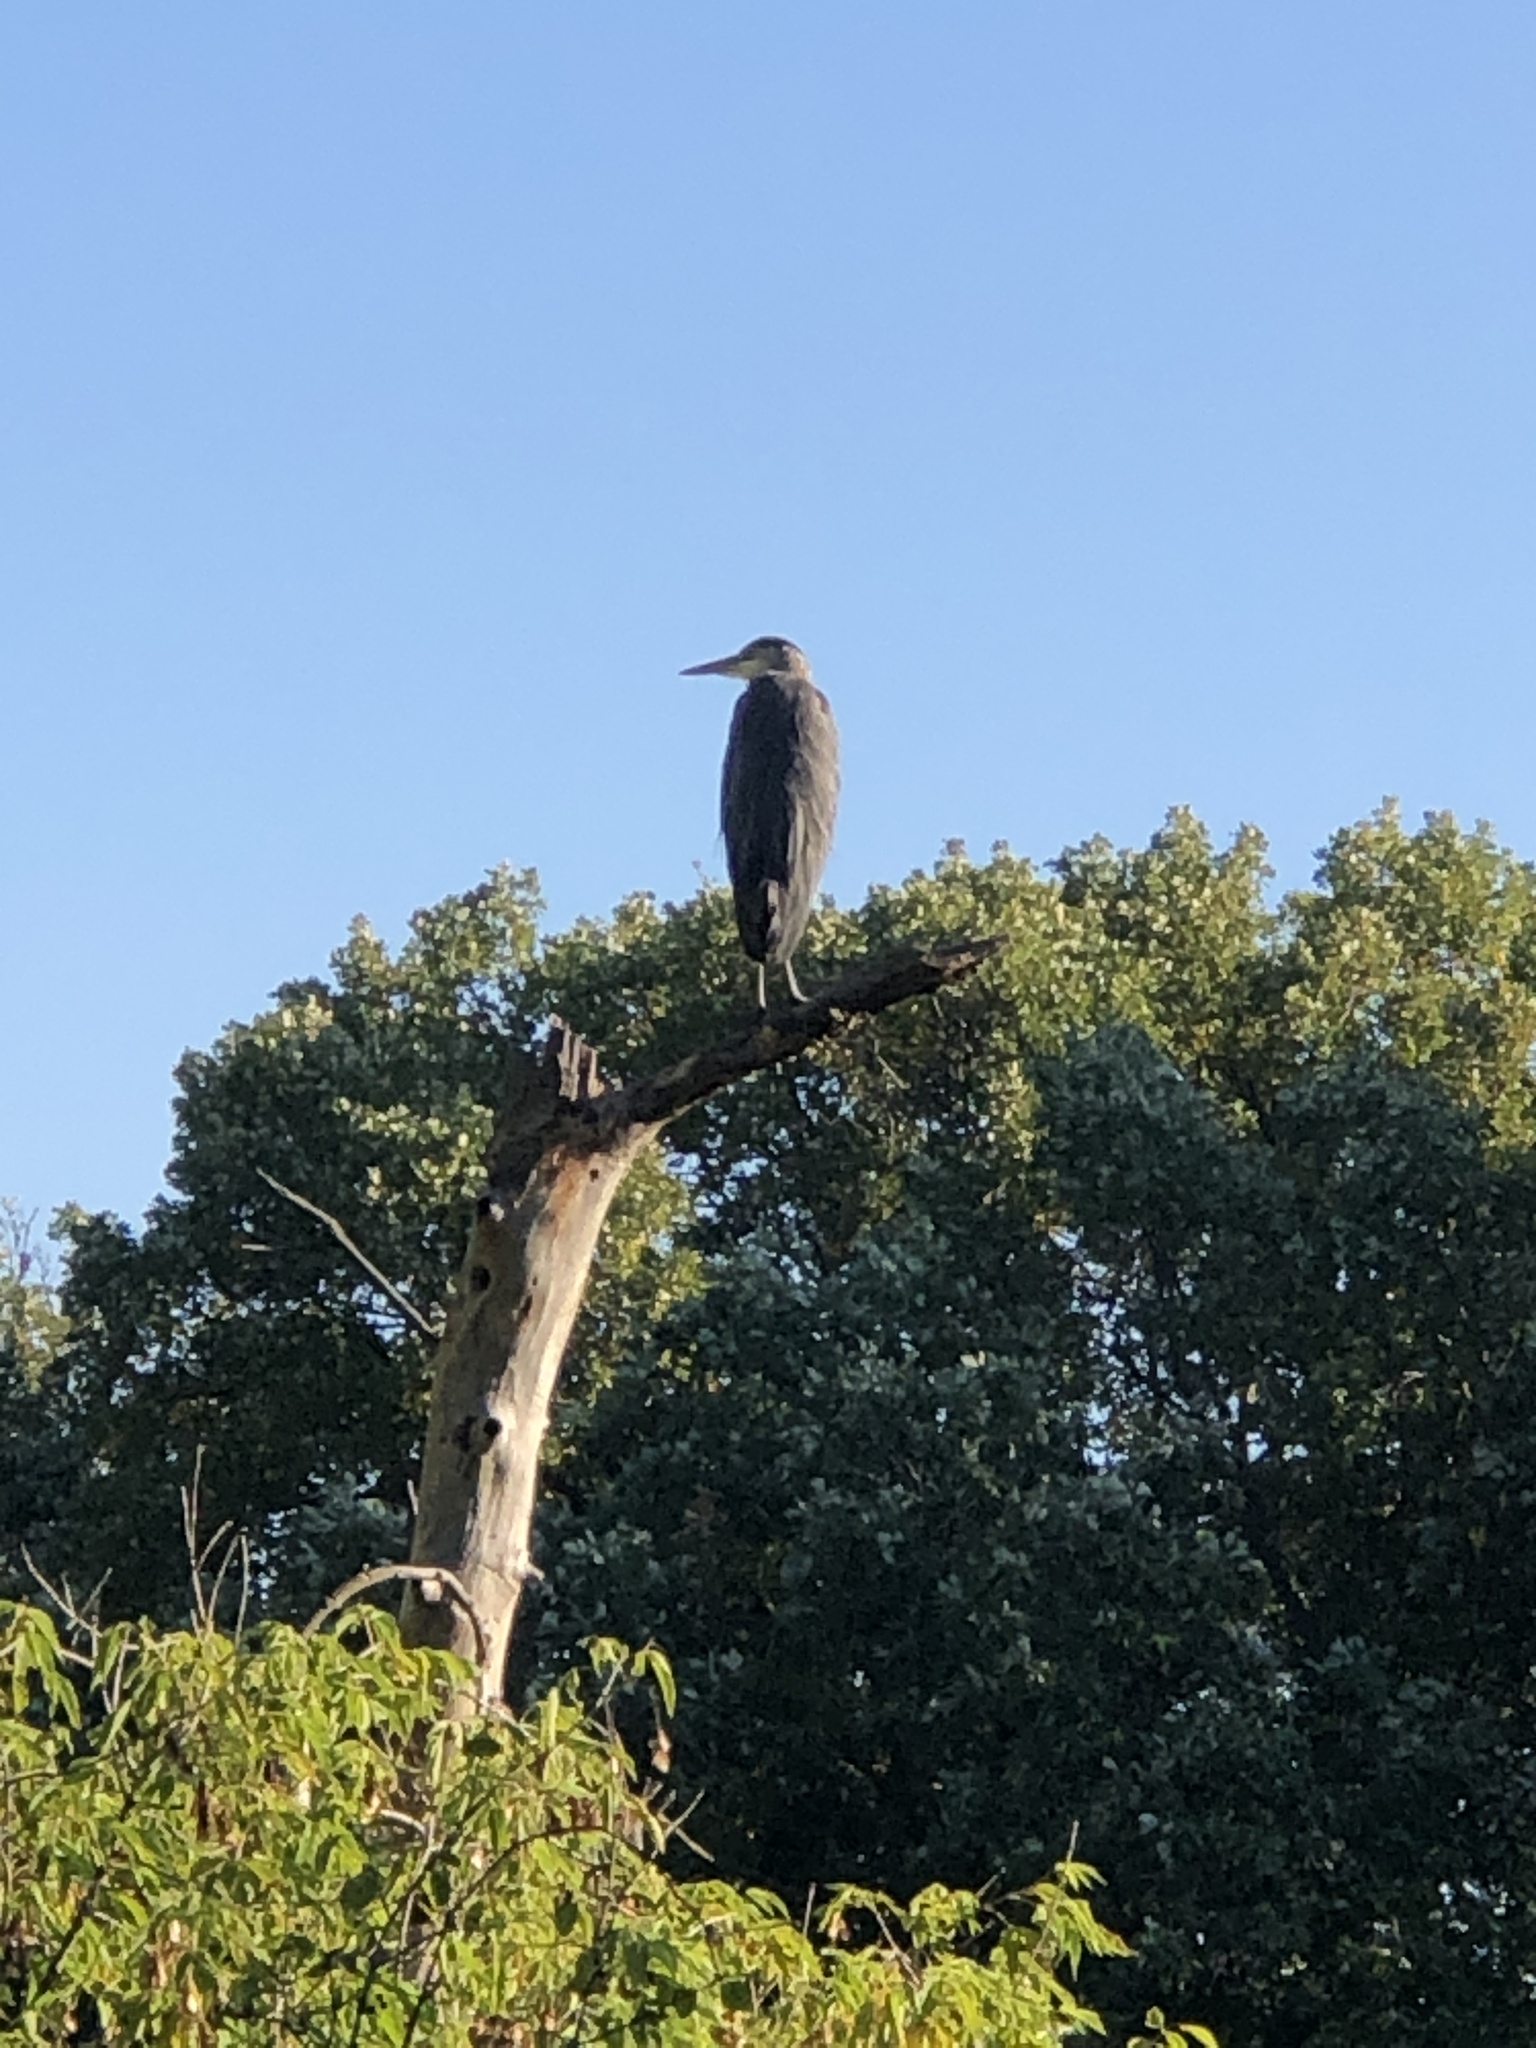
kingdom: Animalia
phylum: Chordata
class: Aves
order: Pelecaniformes
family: Ardeidae
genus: Ardea
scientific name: Ardea herodias
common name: Great blue heron
